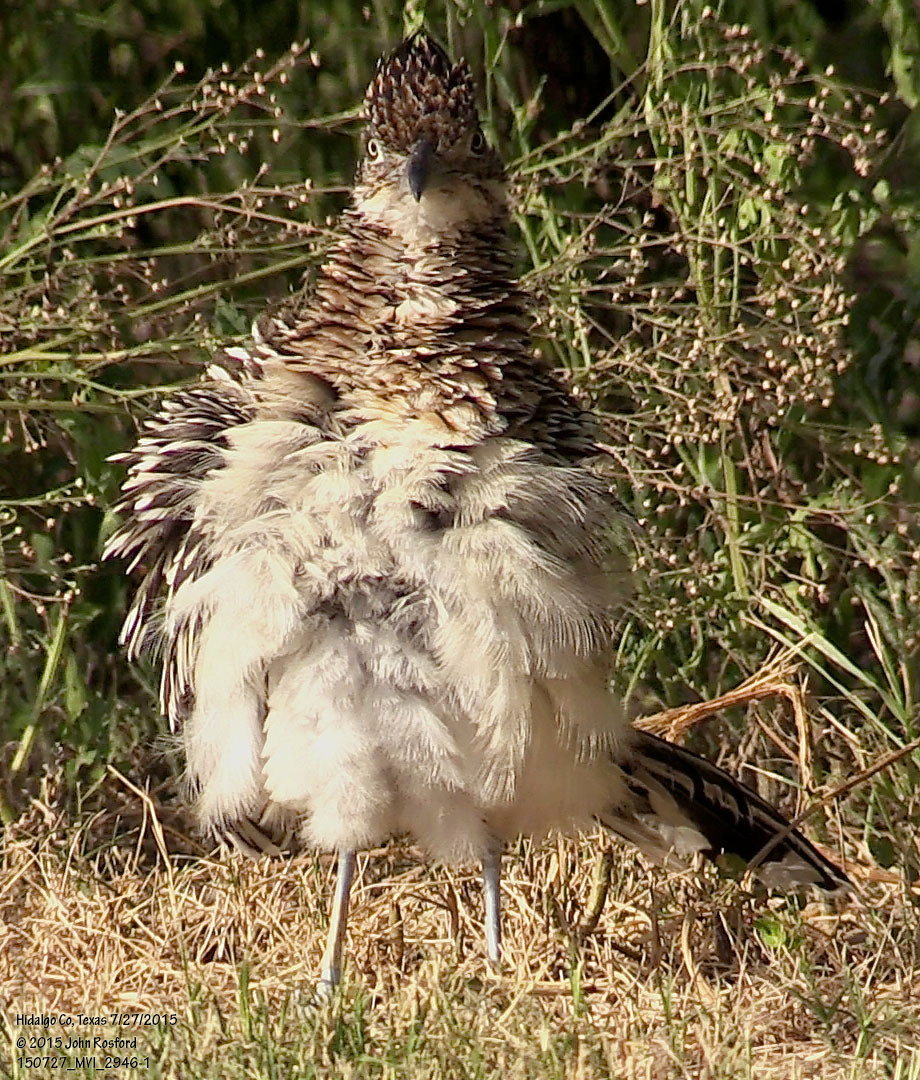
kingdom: Animalia
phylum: Chordata
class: Aves
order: Cuculiformes
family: Cuculidae
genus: Geococcyx
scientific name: Geococcyx californianus
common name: Greater roadrunner
